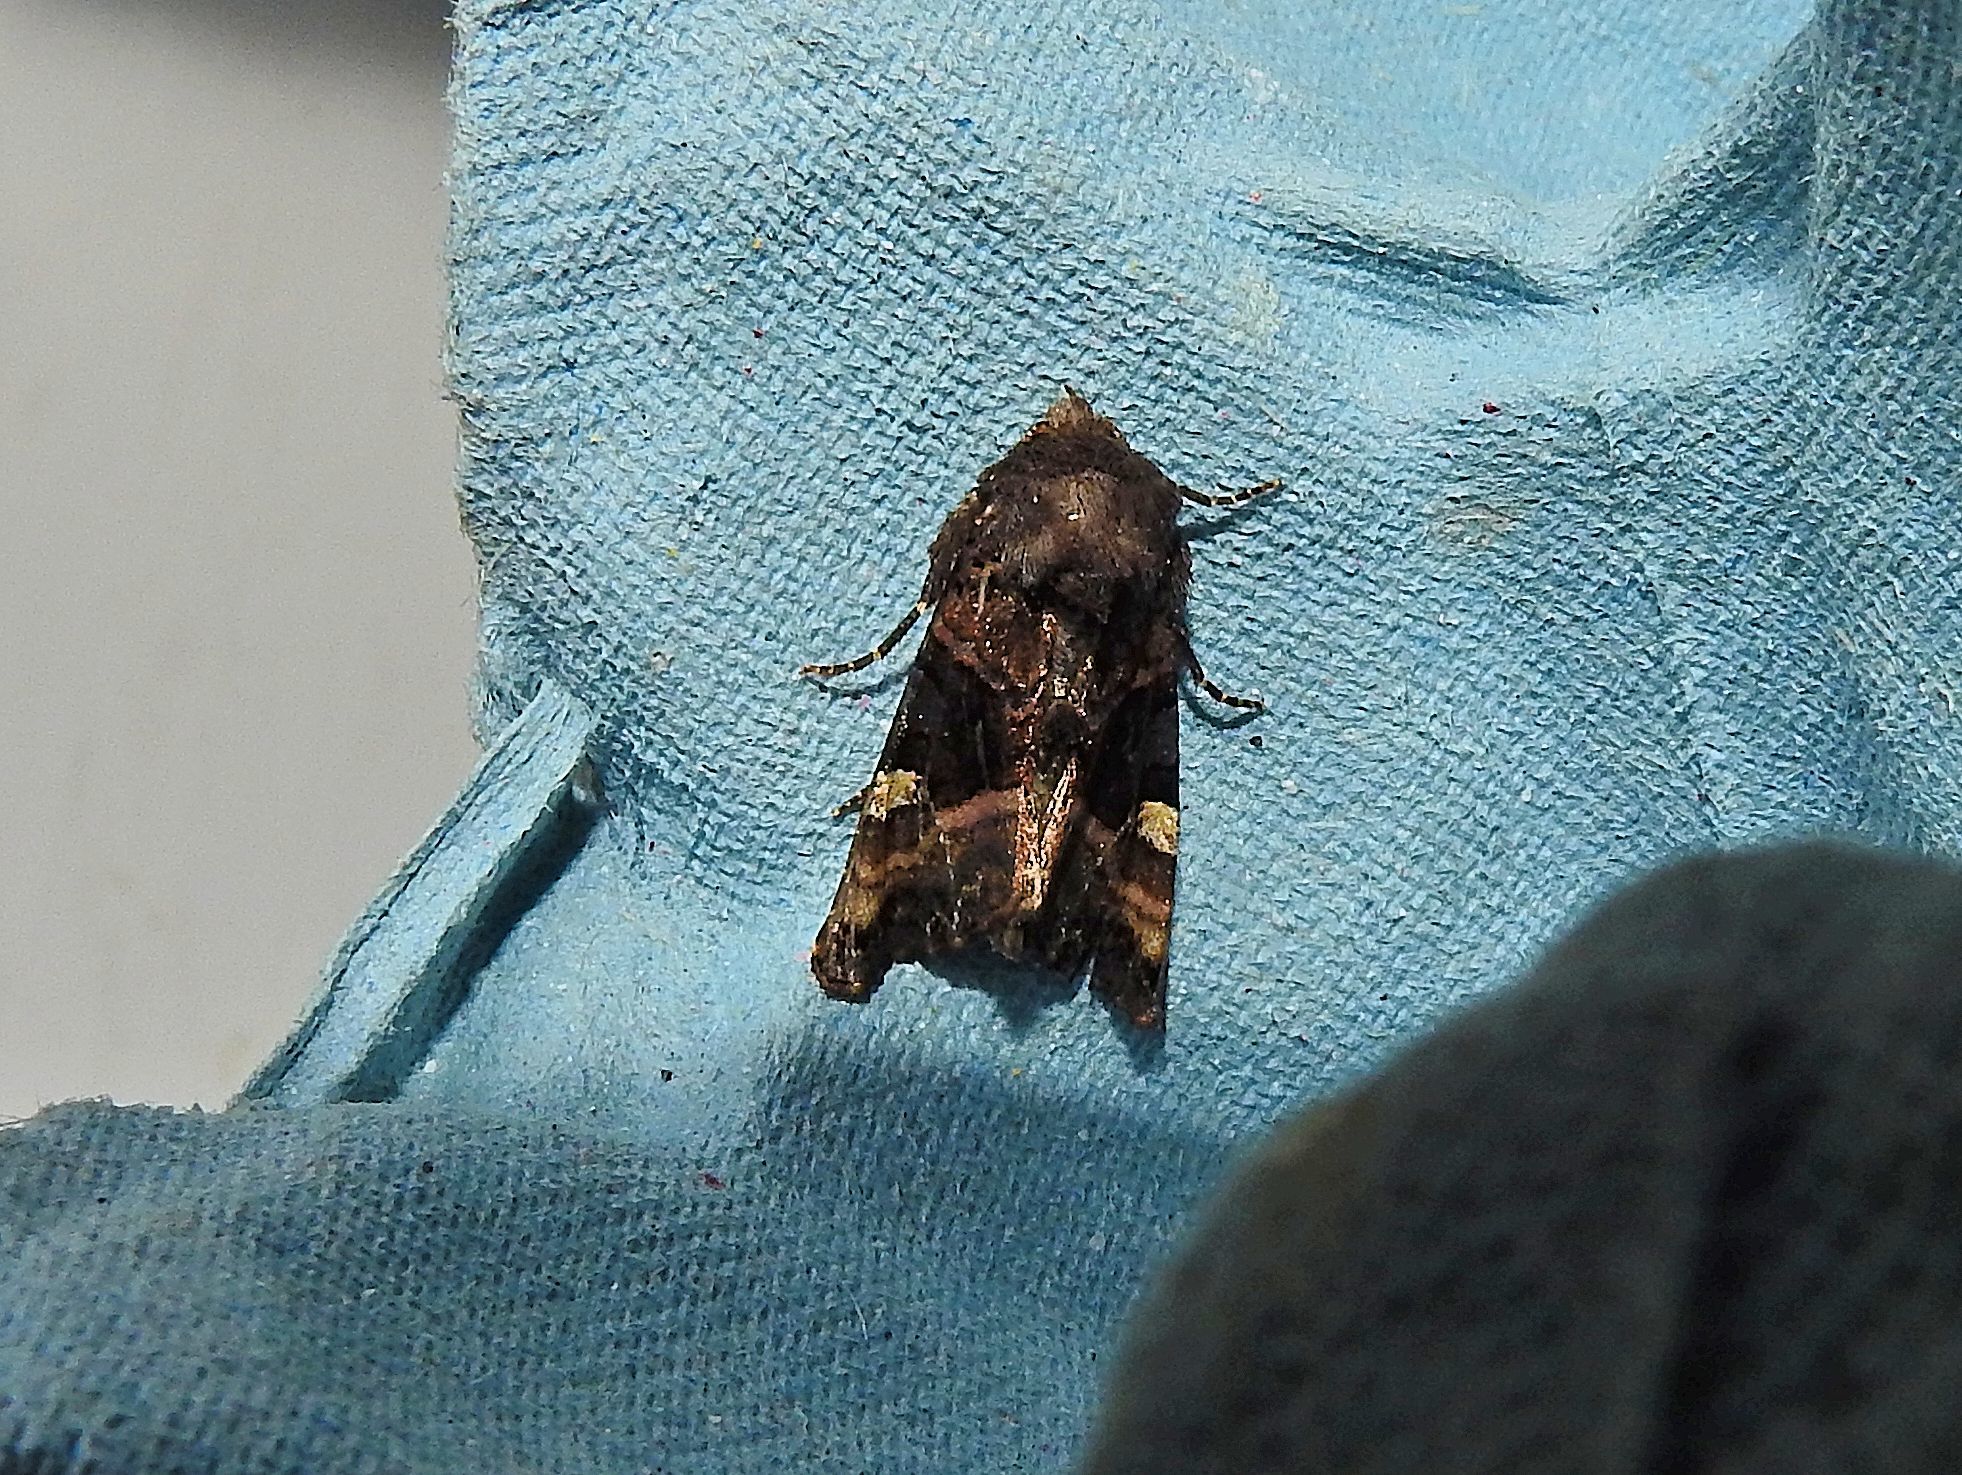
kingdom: Animalia
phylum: Arthropoda
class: Insecta
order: Lepidoptera
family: Noctuidae
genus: Euplexia
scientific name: Euplexia lucipara
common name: Small angle shades
